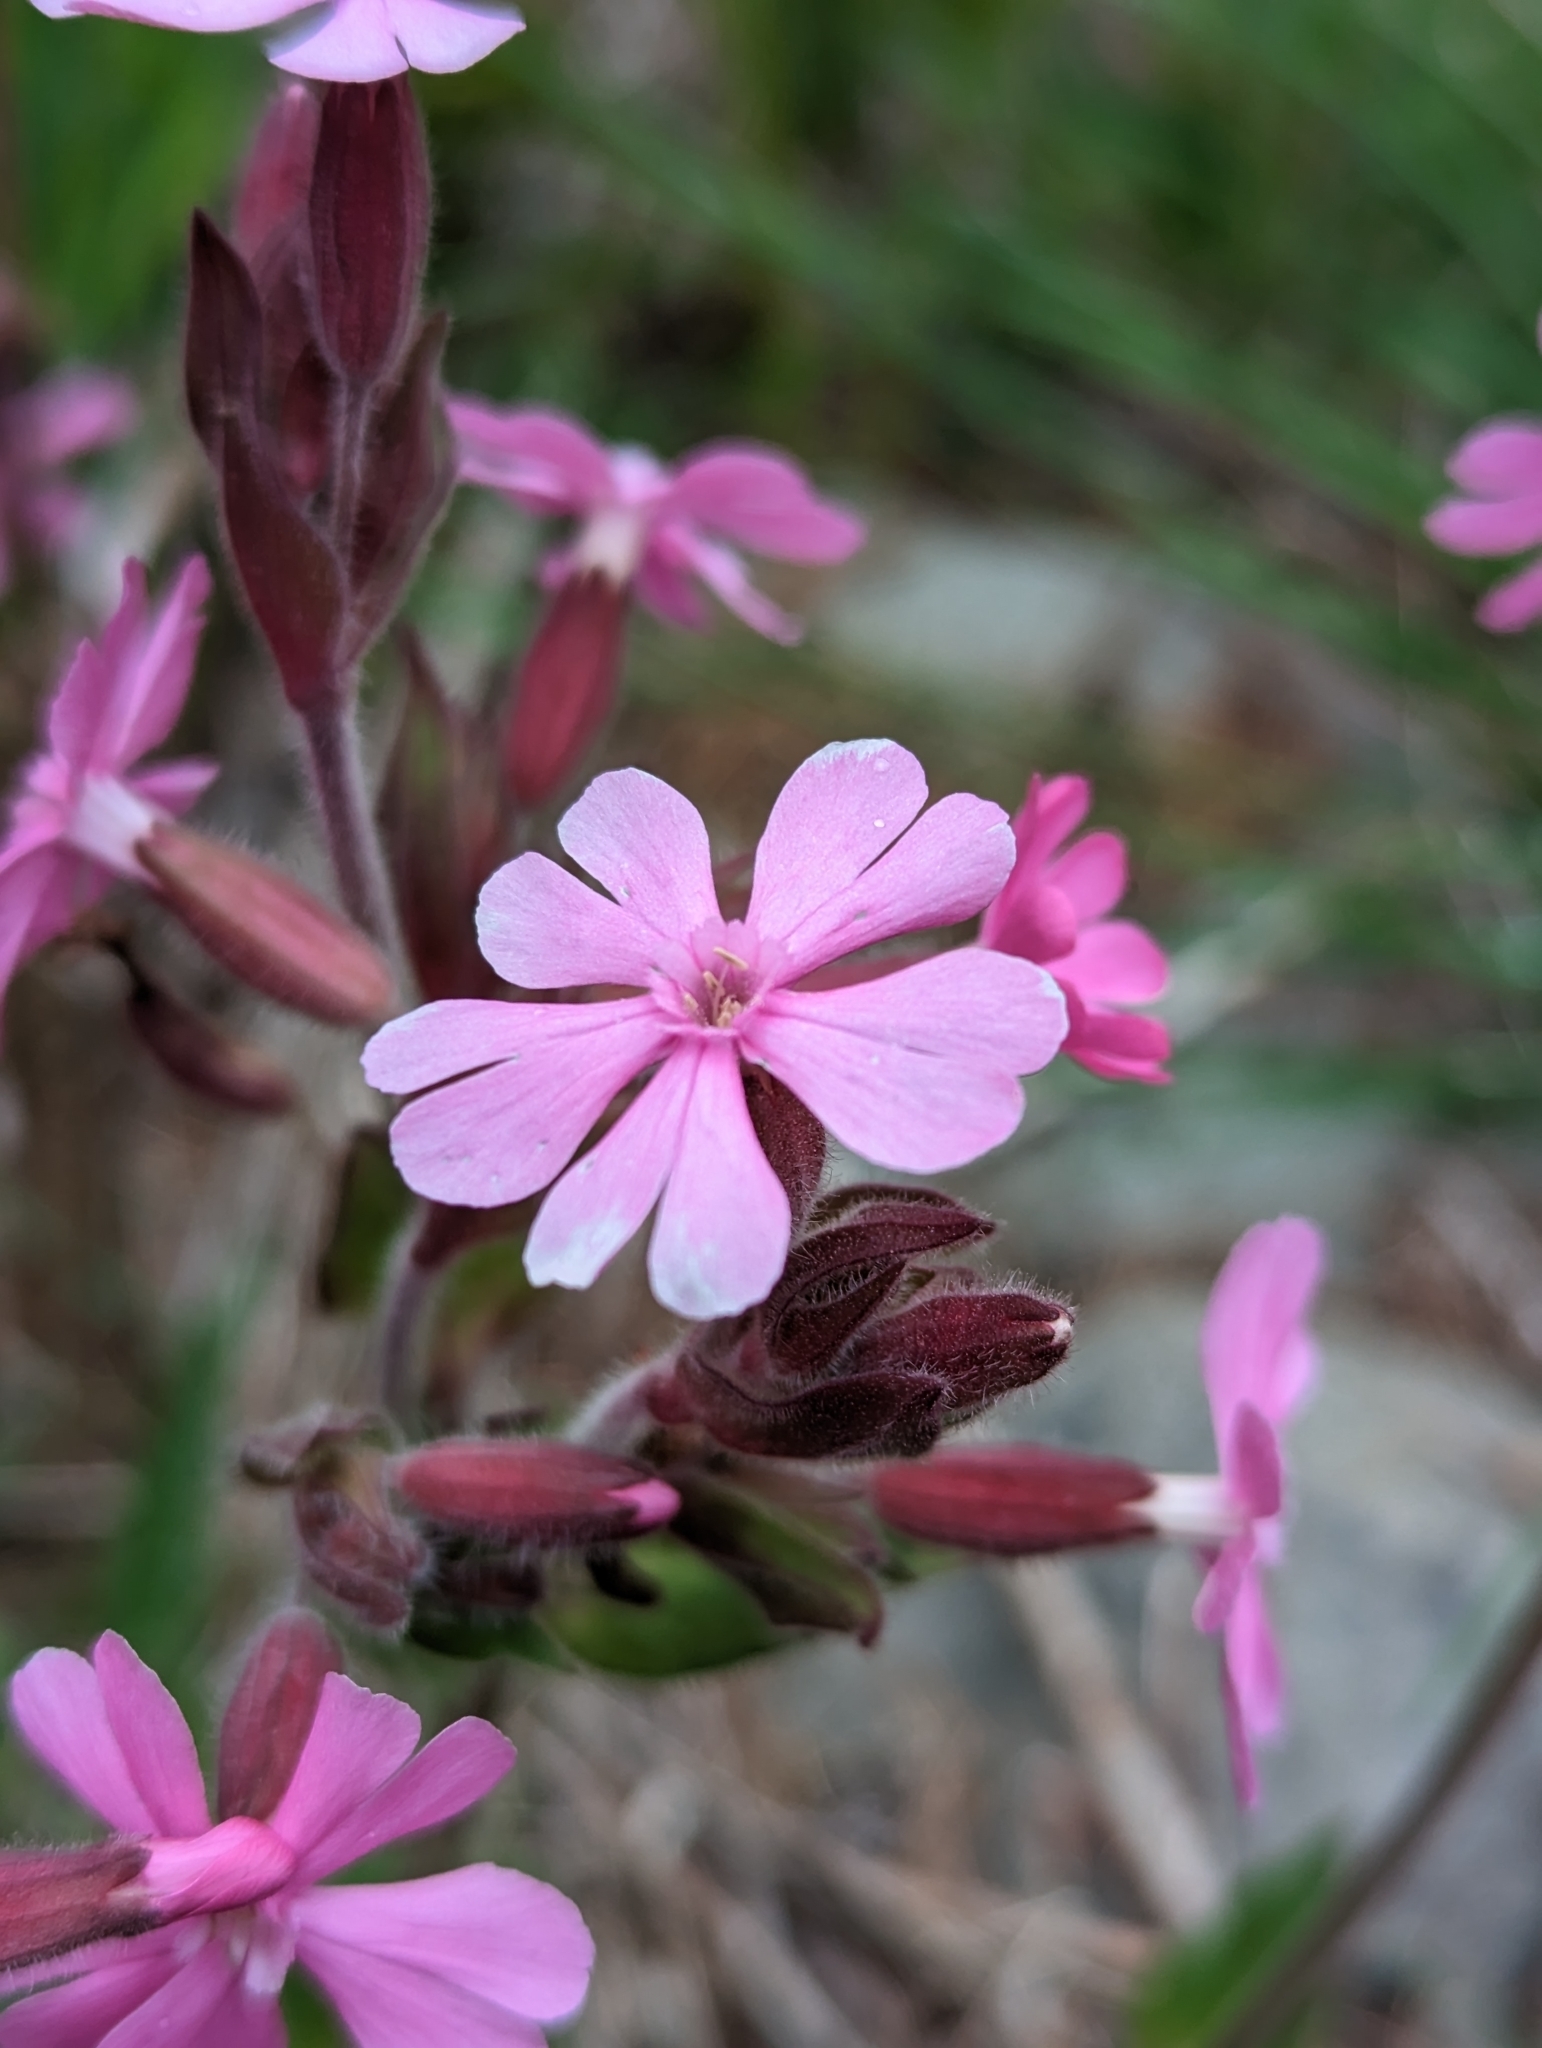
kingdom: Plantae
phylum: Tracheophyta
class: Magnoliopsida
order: Caryophyllales
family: Caryophyllaceae
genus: Silene
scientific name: Silene dioica
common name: Red campion
